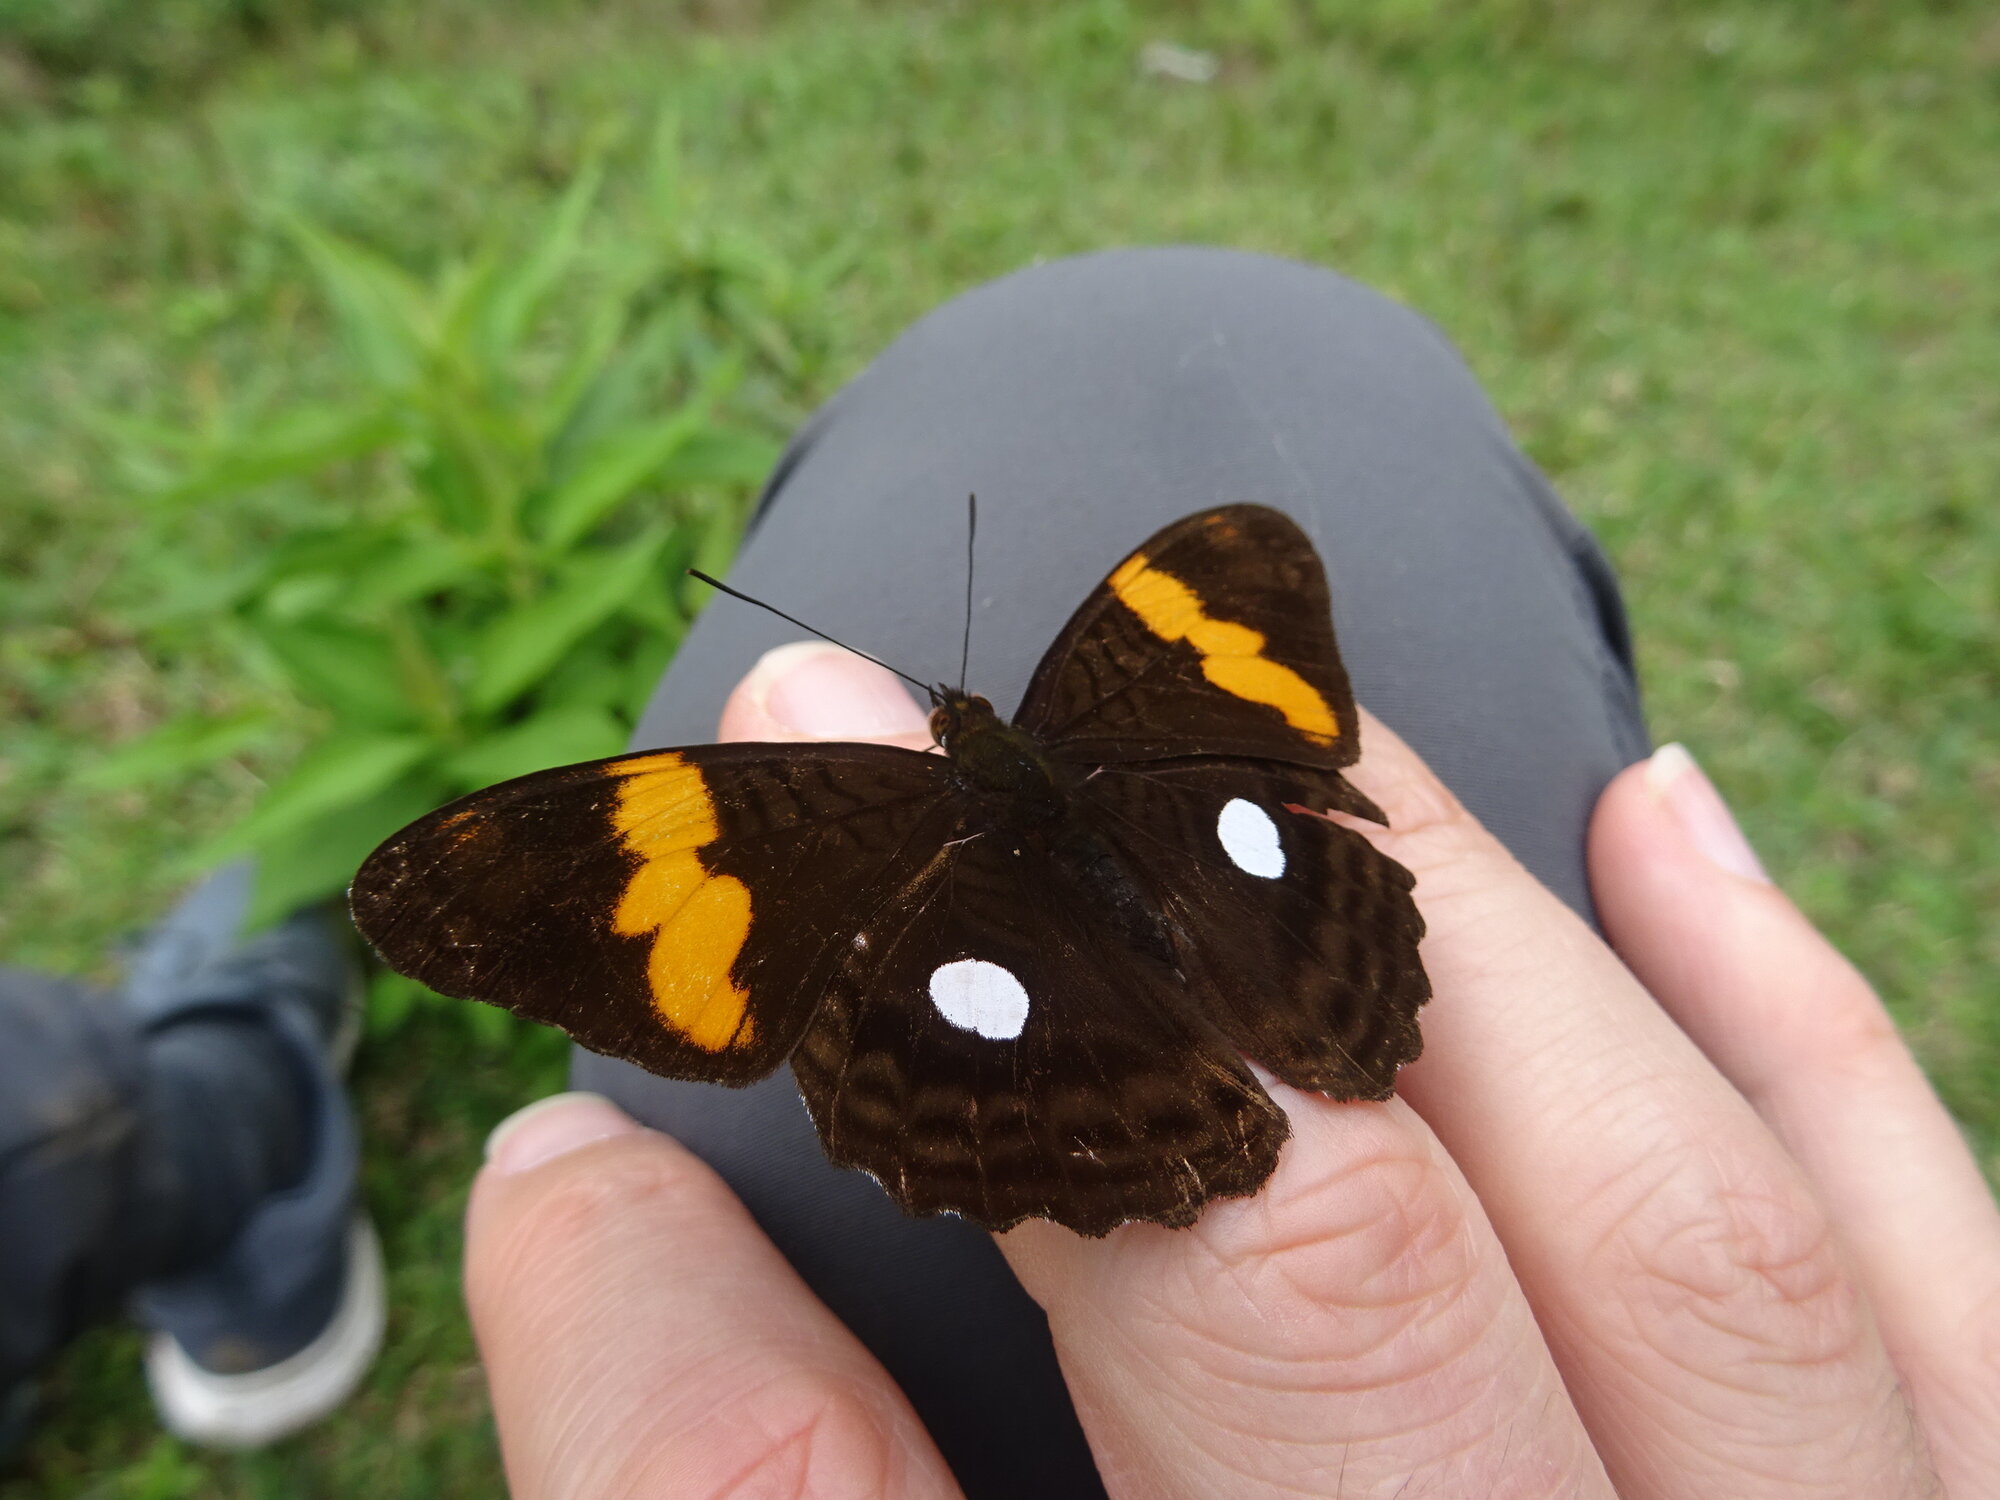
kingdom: Animalia
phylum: Arthropoda
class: Insecta
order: Lepidoptera
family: Nymphalidae
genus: Limenitis
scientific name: Limenitis leucophthalma
